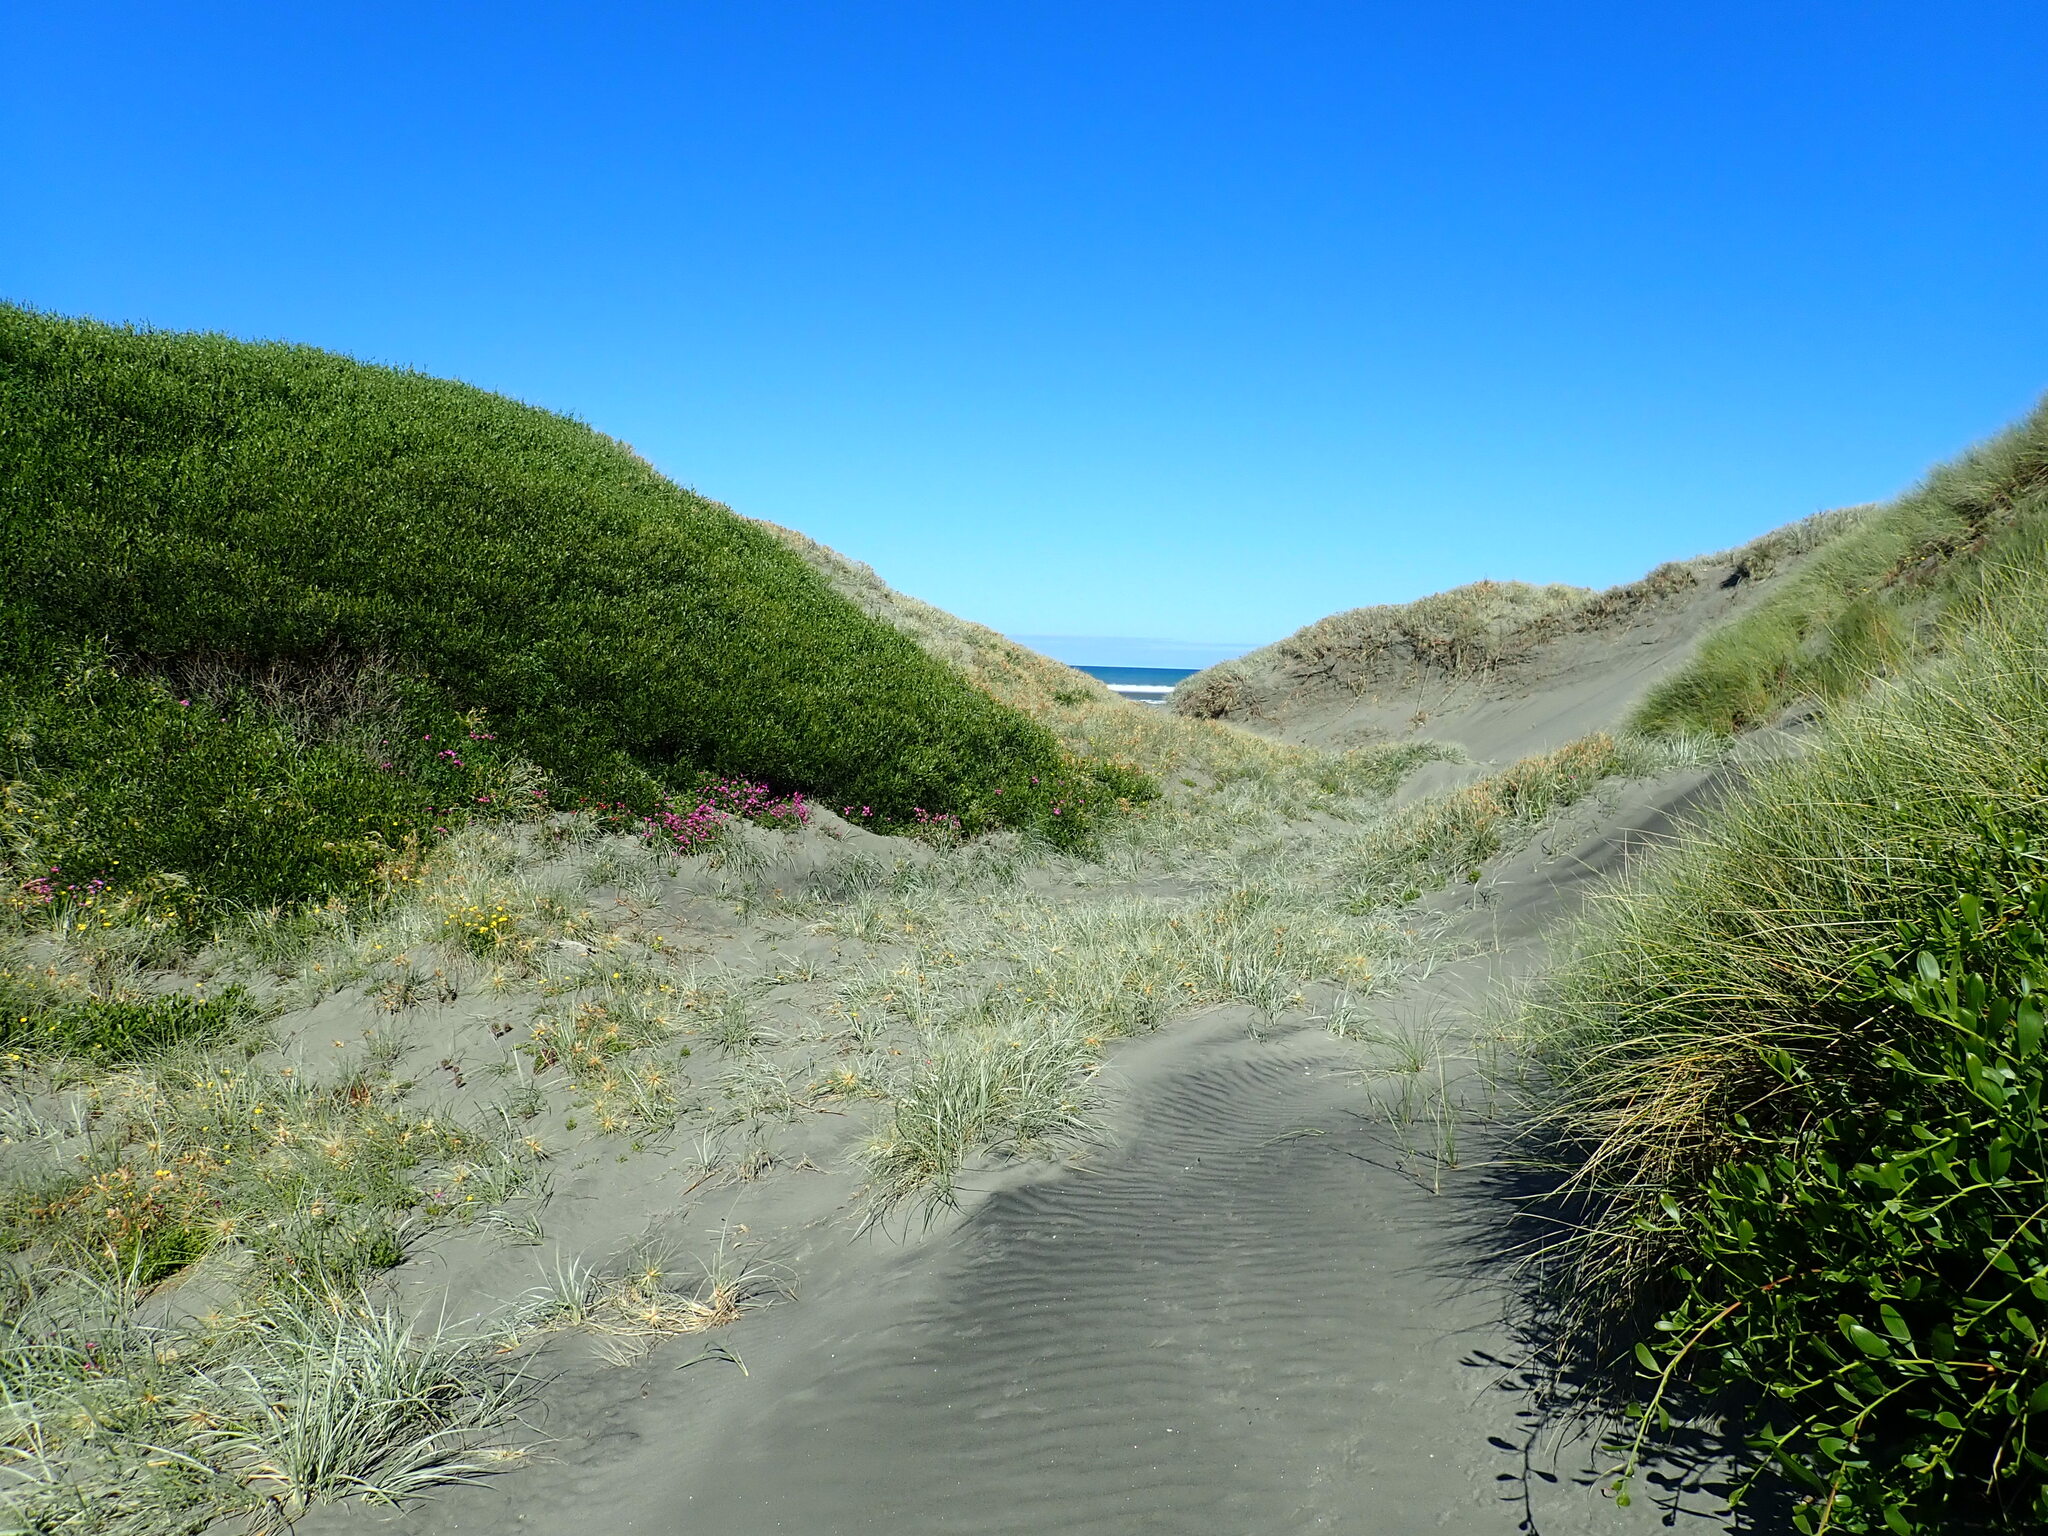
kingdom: Plantae
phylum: Tracheophyta
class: Magnoliopsida
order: Asterales
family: Asteraceae
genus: Senecio
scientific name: Senecio elegans
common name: Purple groundsel
